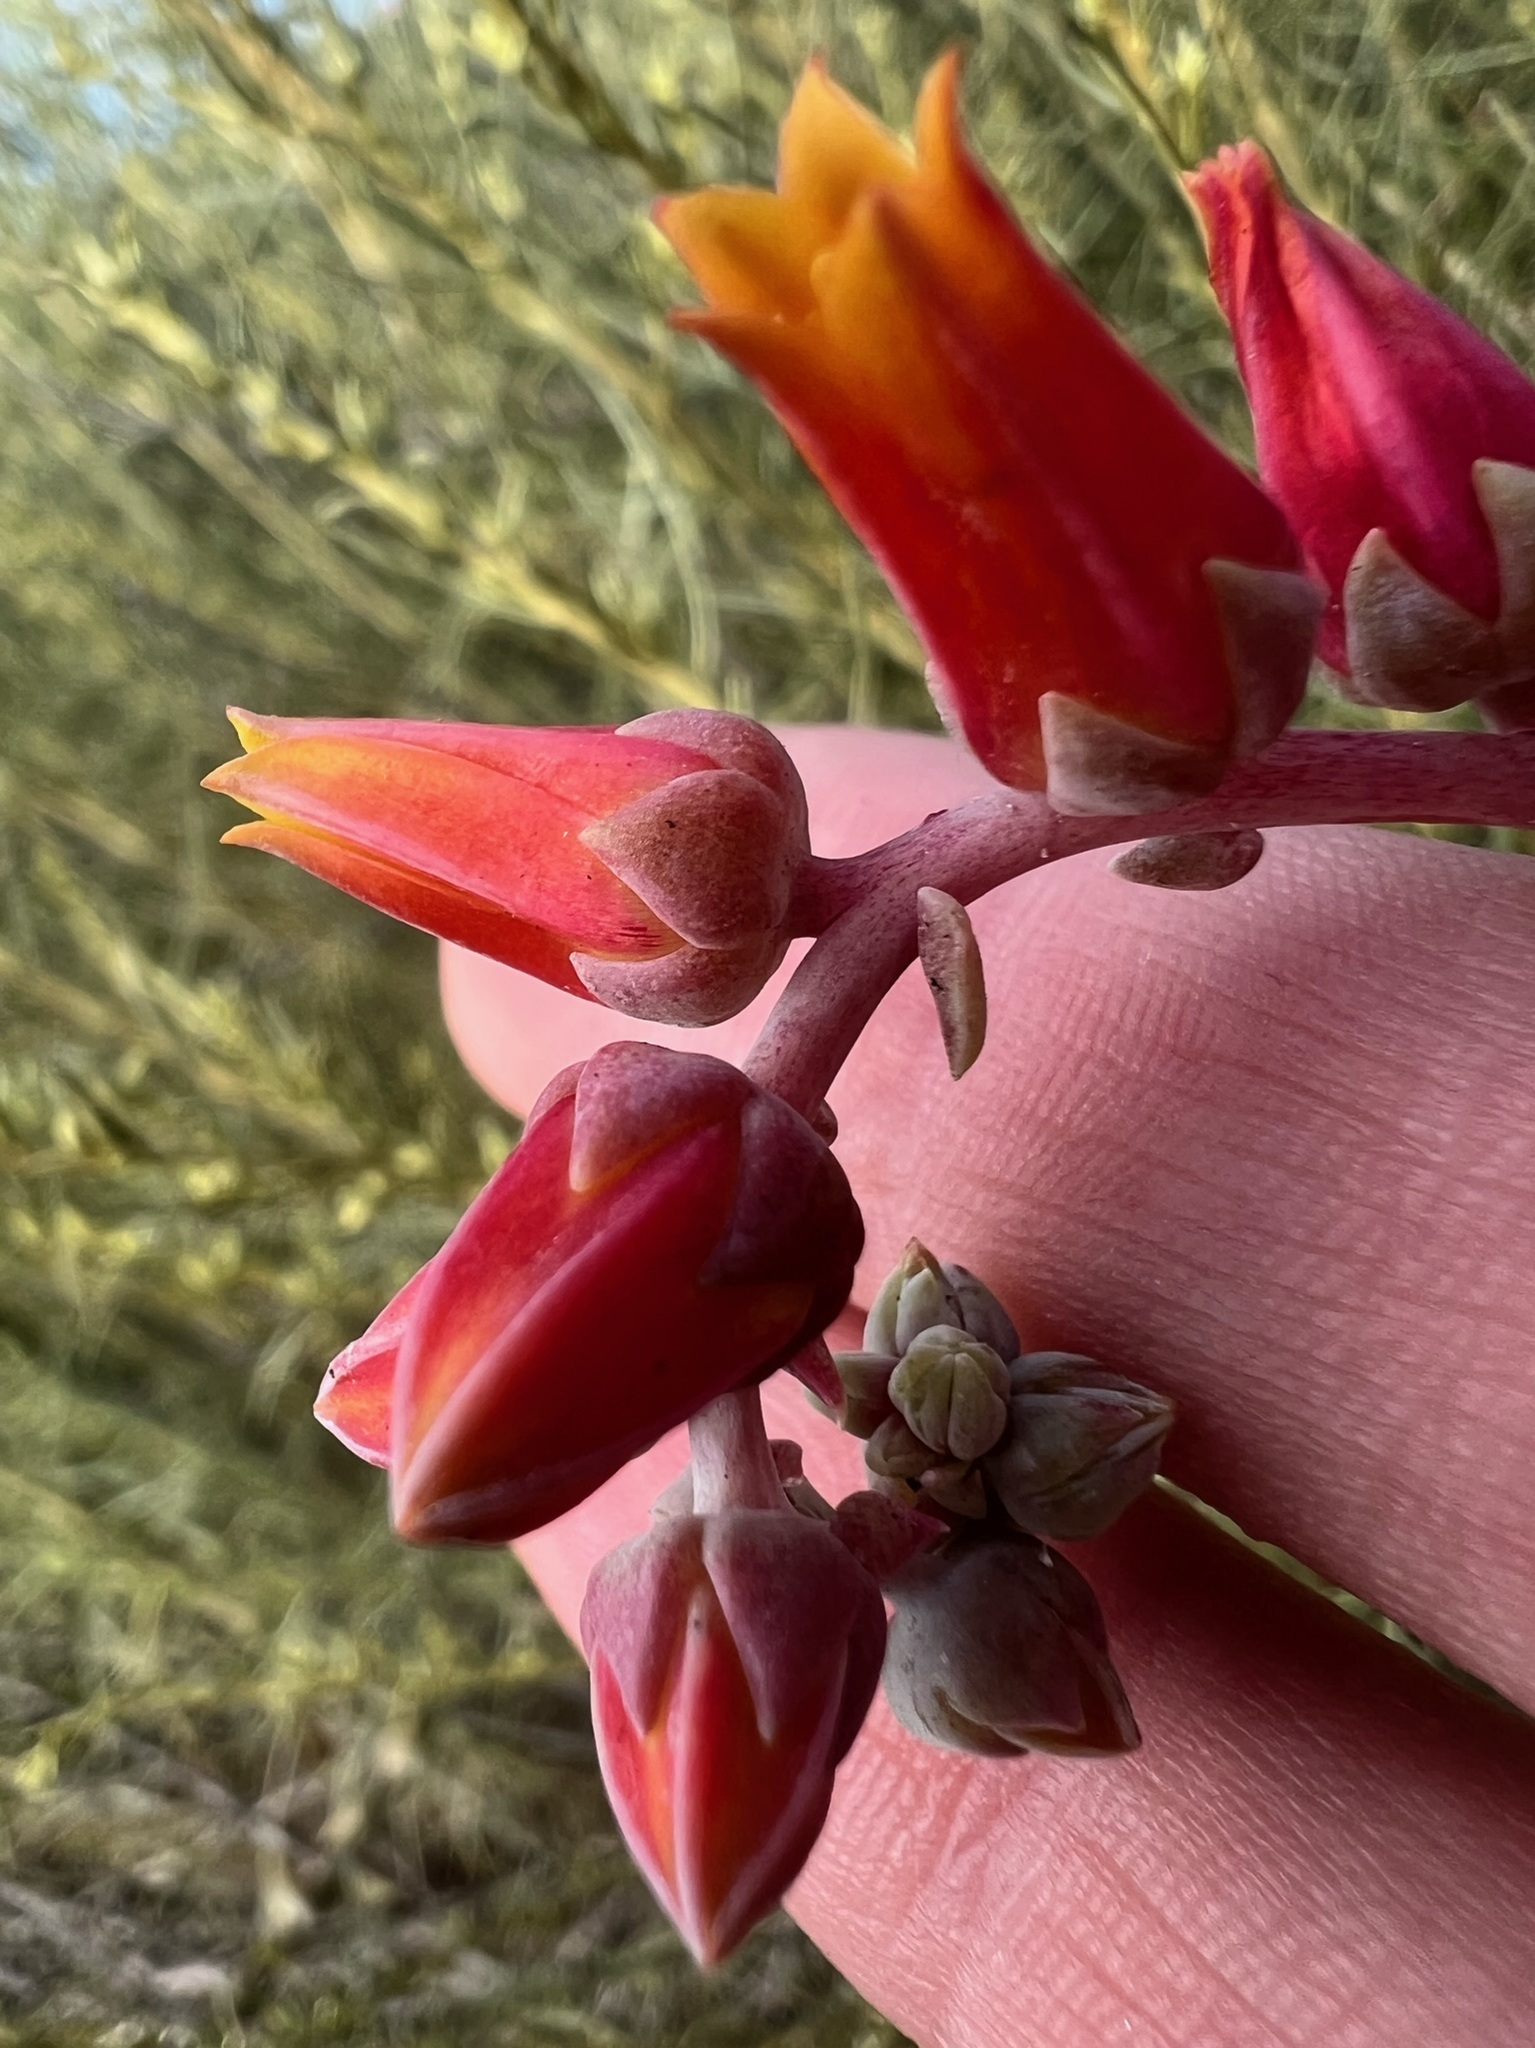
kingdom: Plantae
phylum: Tracheophyta
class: Magnoliopsida
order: Saxifragales
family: Crassulaceae
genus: Dudleya
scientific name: Dudleya lanceolata
